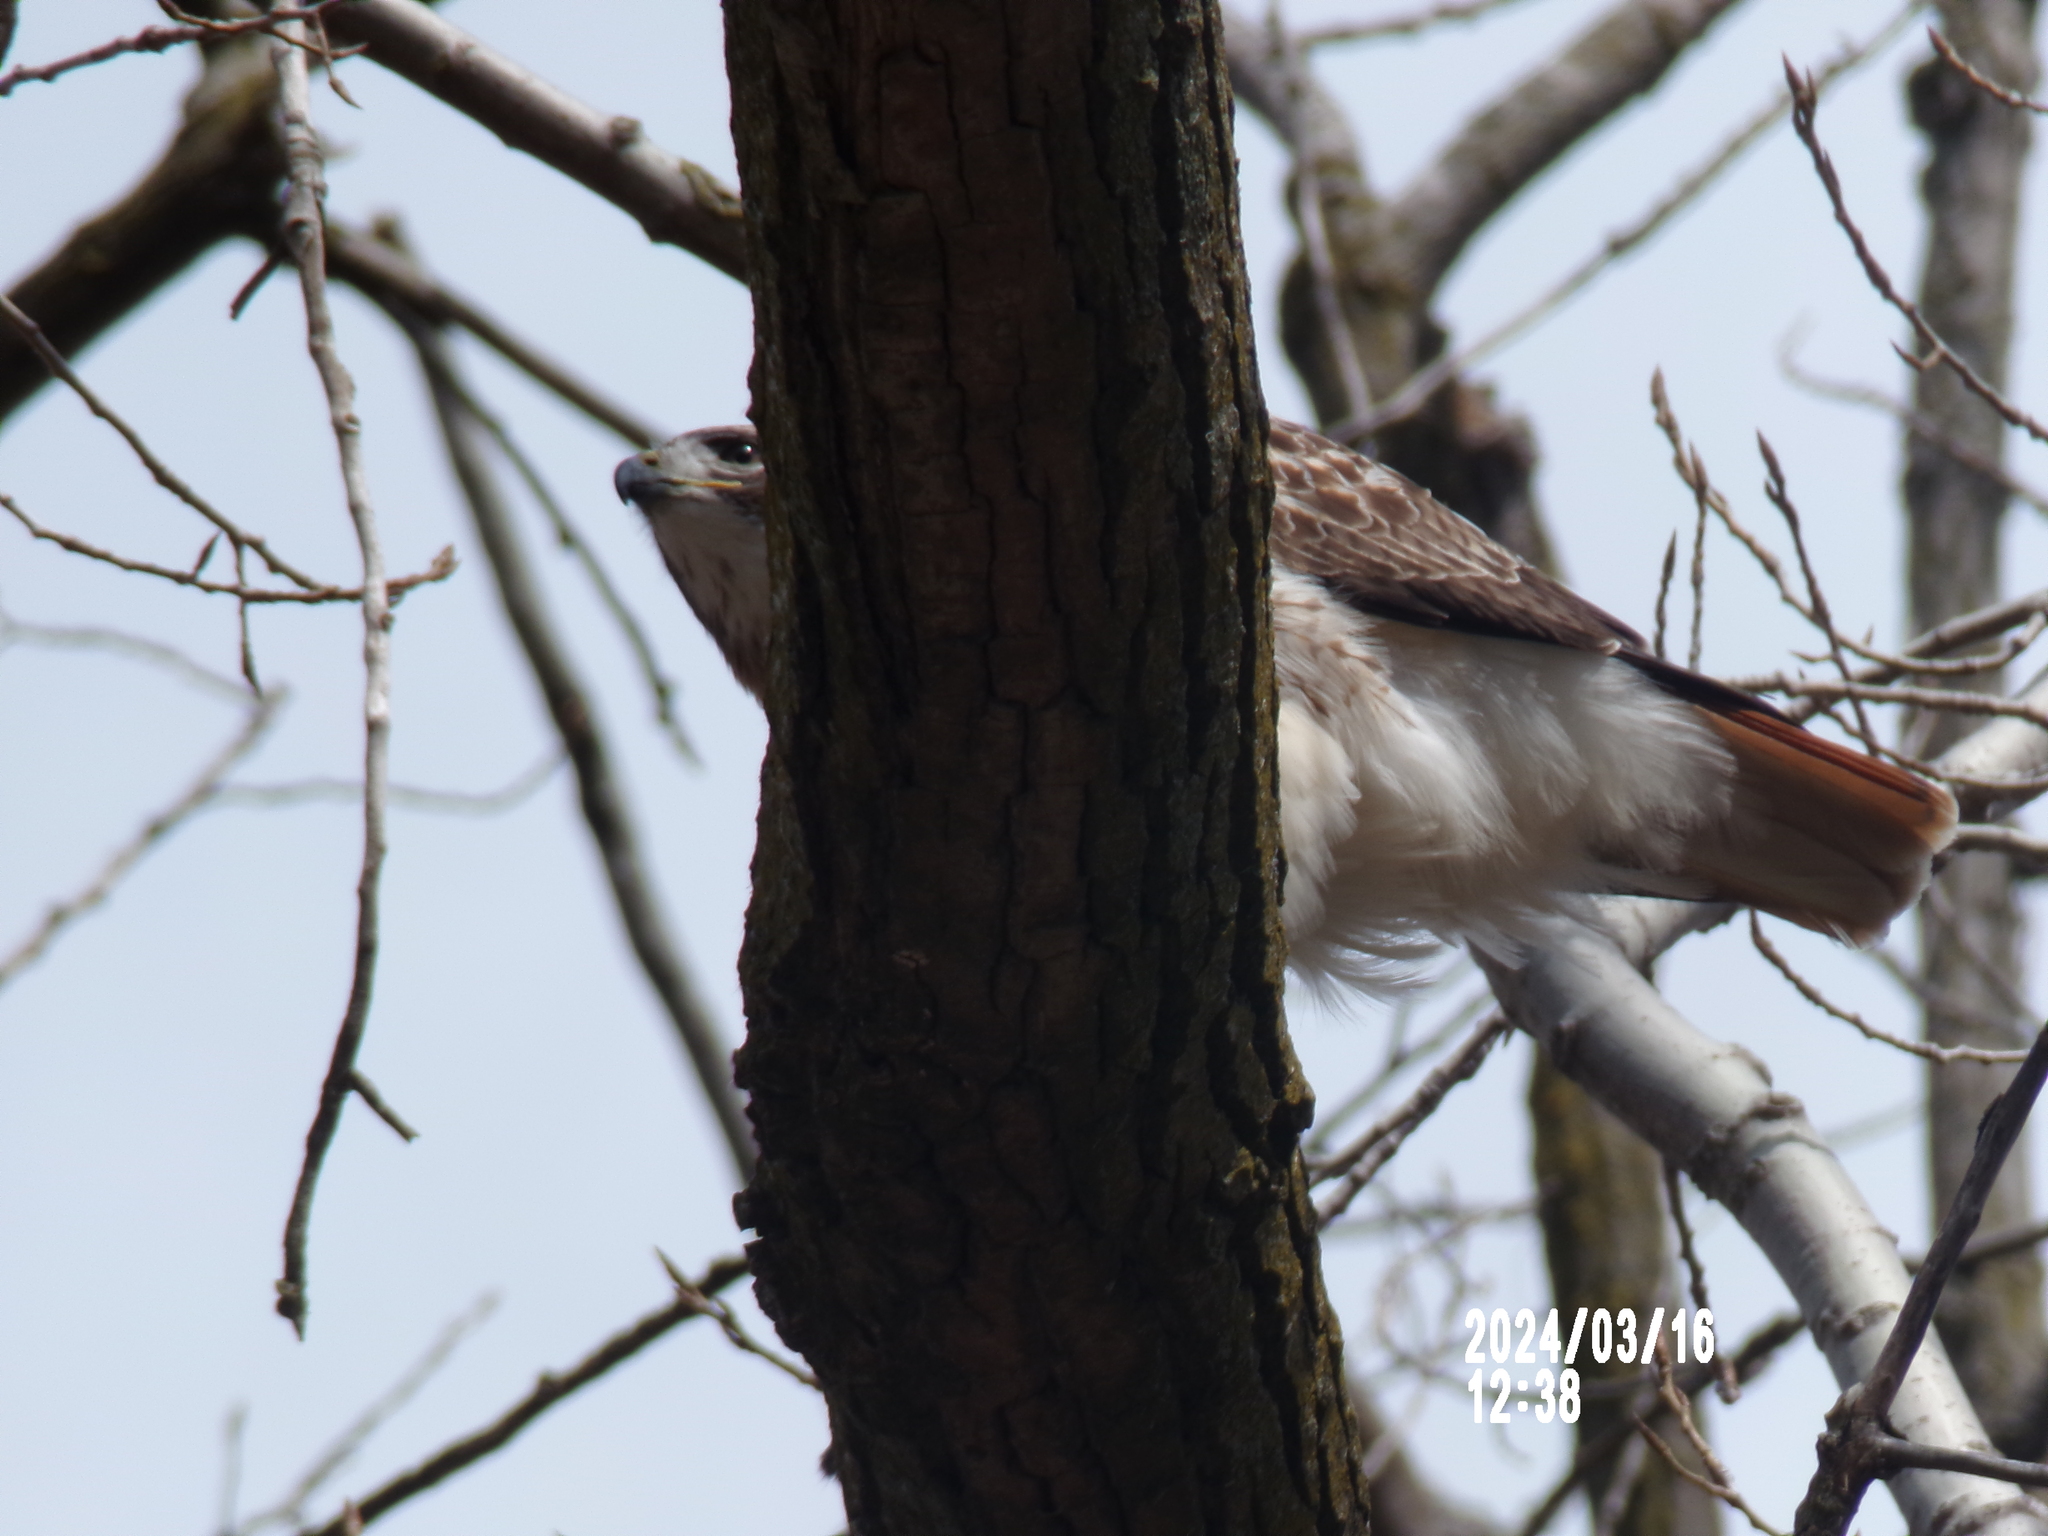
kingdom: Animalia
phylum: Chordata
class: Aves
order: Accipitriformes
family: Accipitridae
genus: Buteo
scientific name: Buteo jamaicensis
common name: Red-tailed hawk
